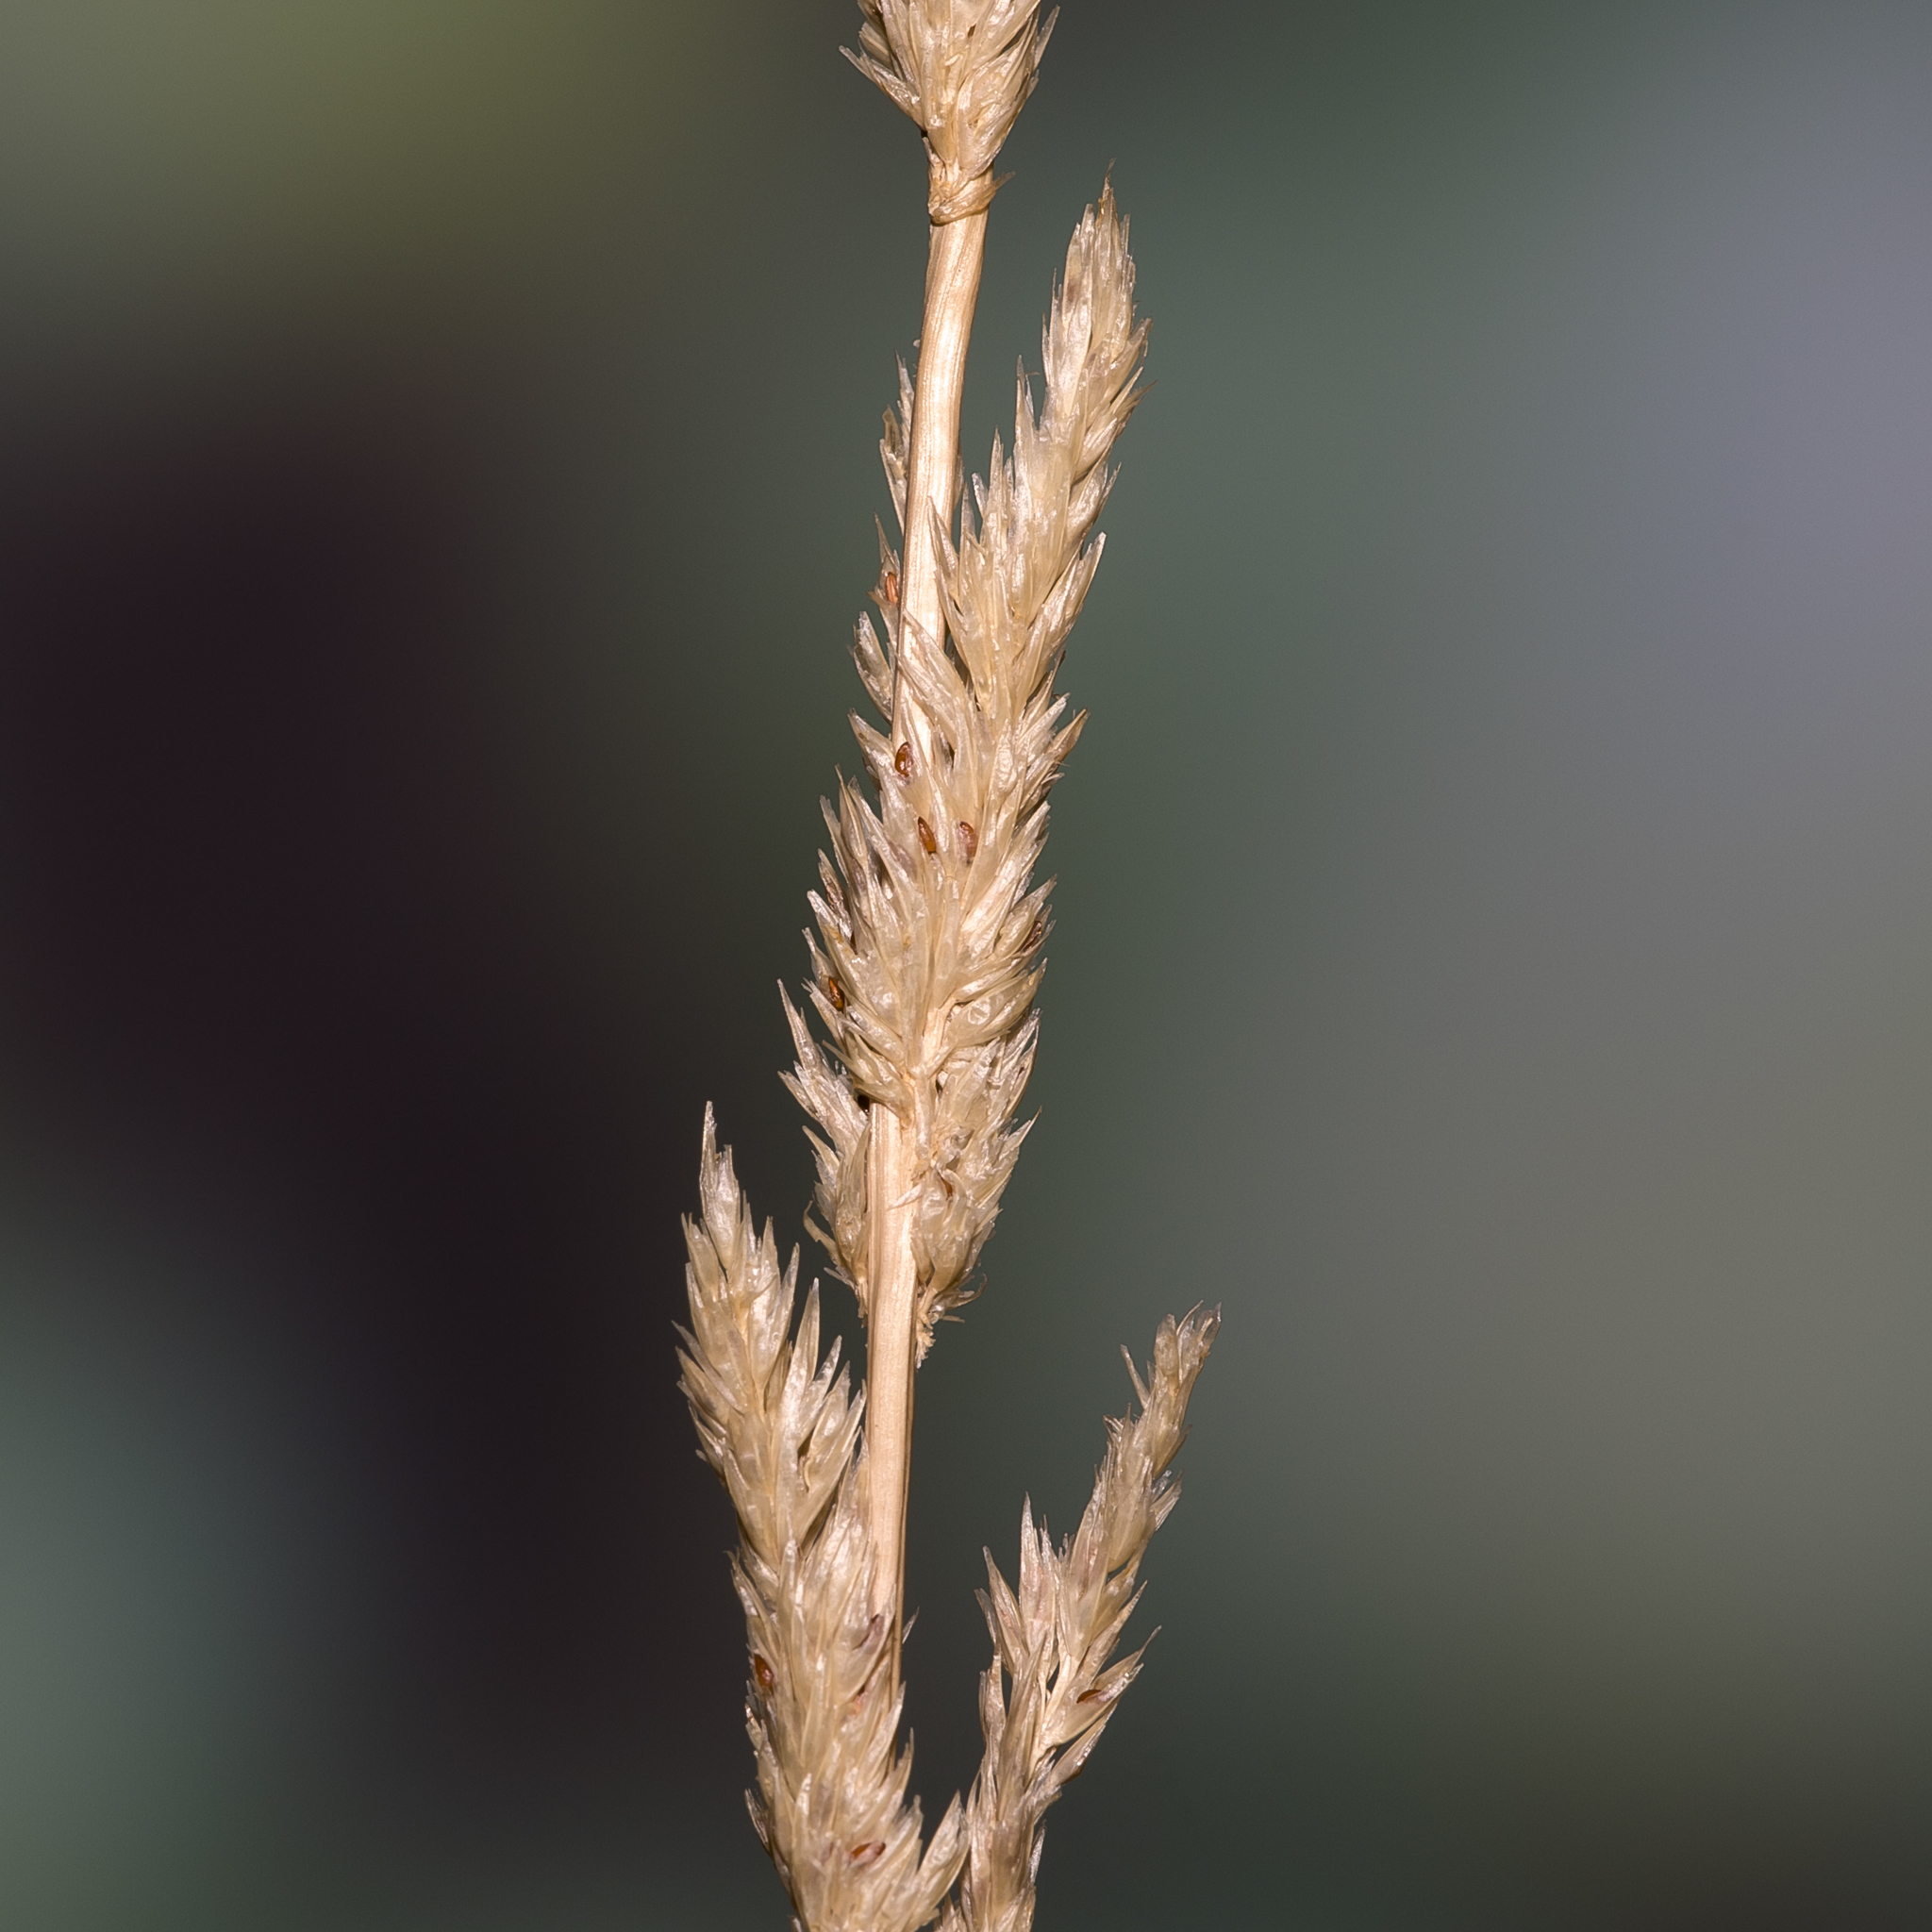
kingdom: Plantae
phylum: Tracheophyta
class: Liliopsida
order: Poales
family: Poaceae
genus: Sporobolus
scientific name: Sporobolus advenus
